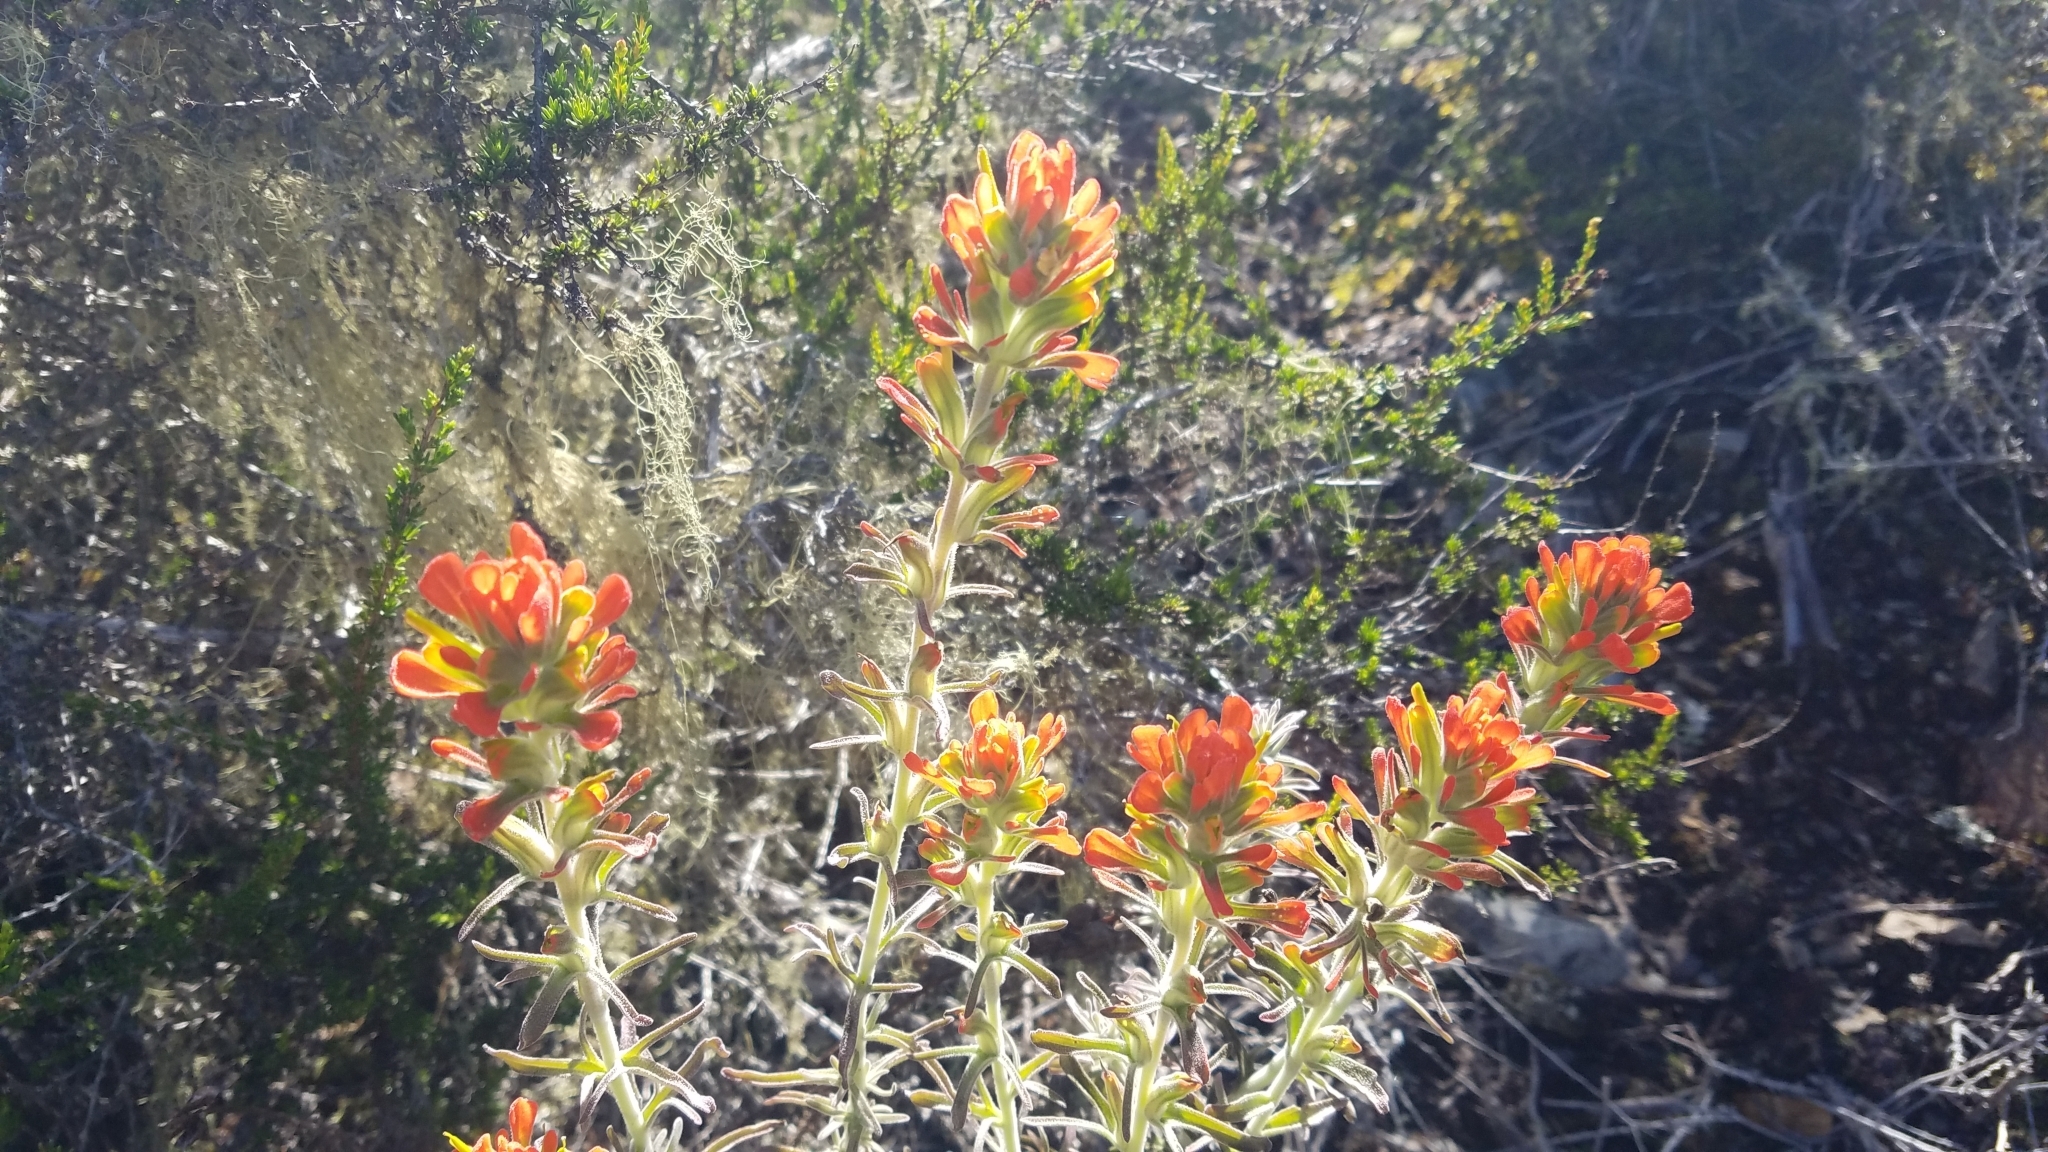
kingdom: Plantae
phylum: Tracheophyta
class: Magnoliopsida
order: Lamiales
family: Orobanchaceae
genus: Castilleja
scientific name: Castilleja foliolosa
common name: Woolly indian paintbrush
